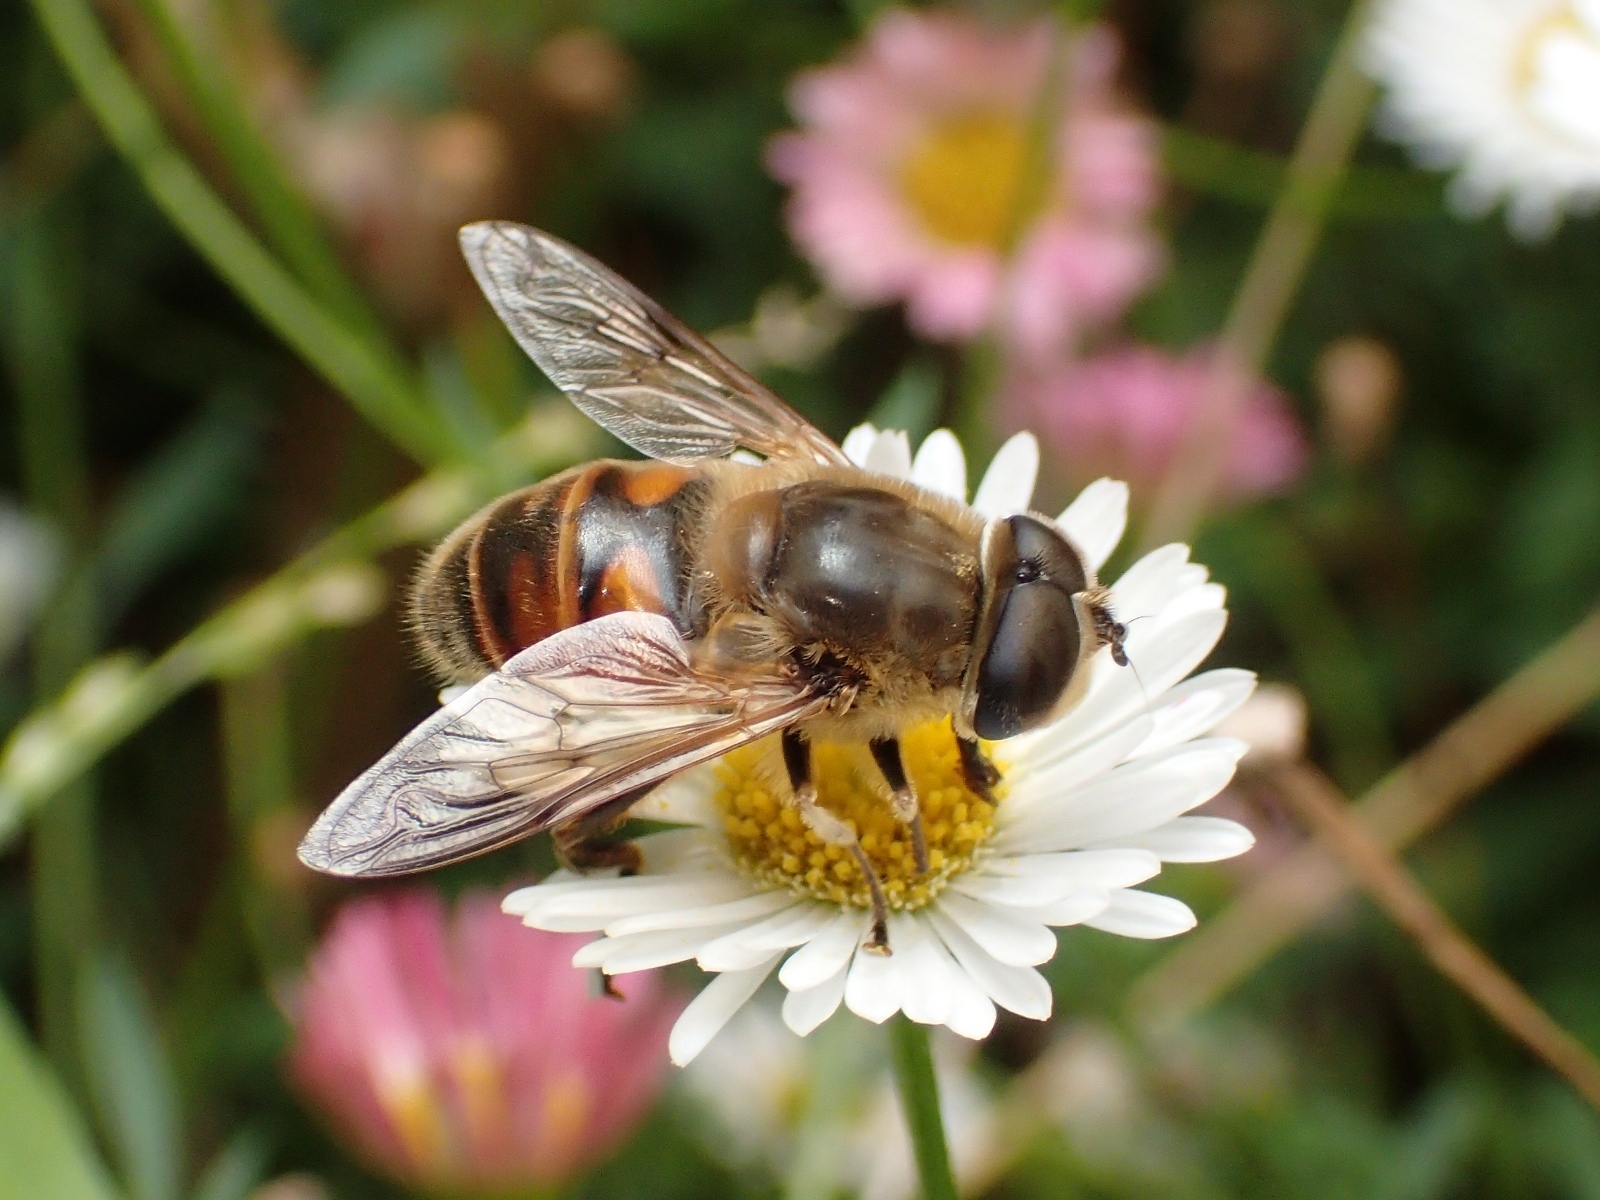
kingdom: Animalia
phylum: Arthropoda
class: Insecta
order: Diptera
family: Syrphidae
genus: Eristalis
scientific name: Eristalis tenax
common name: Drone fly
